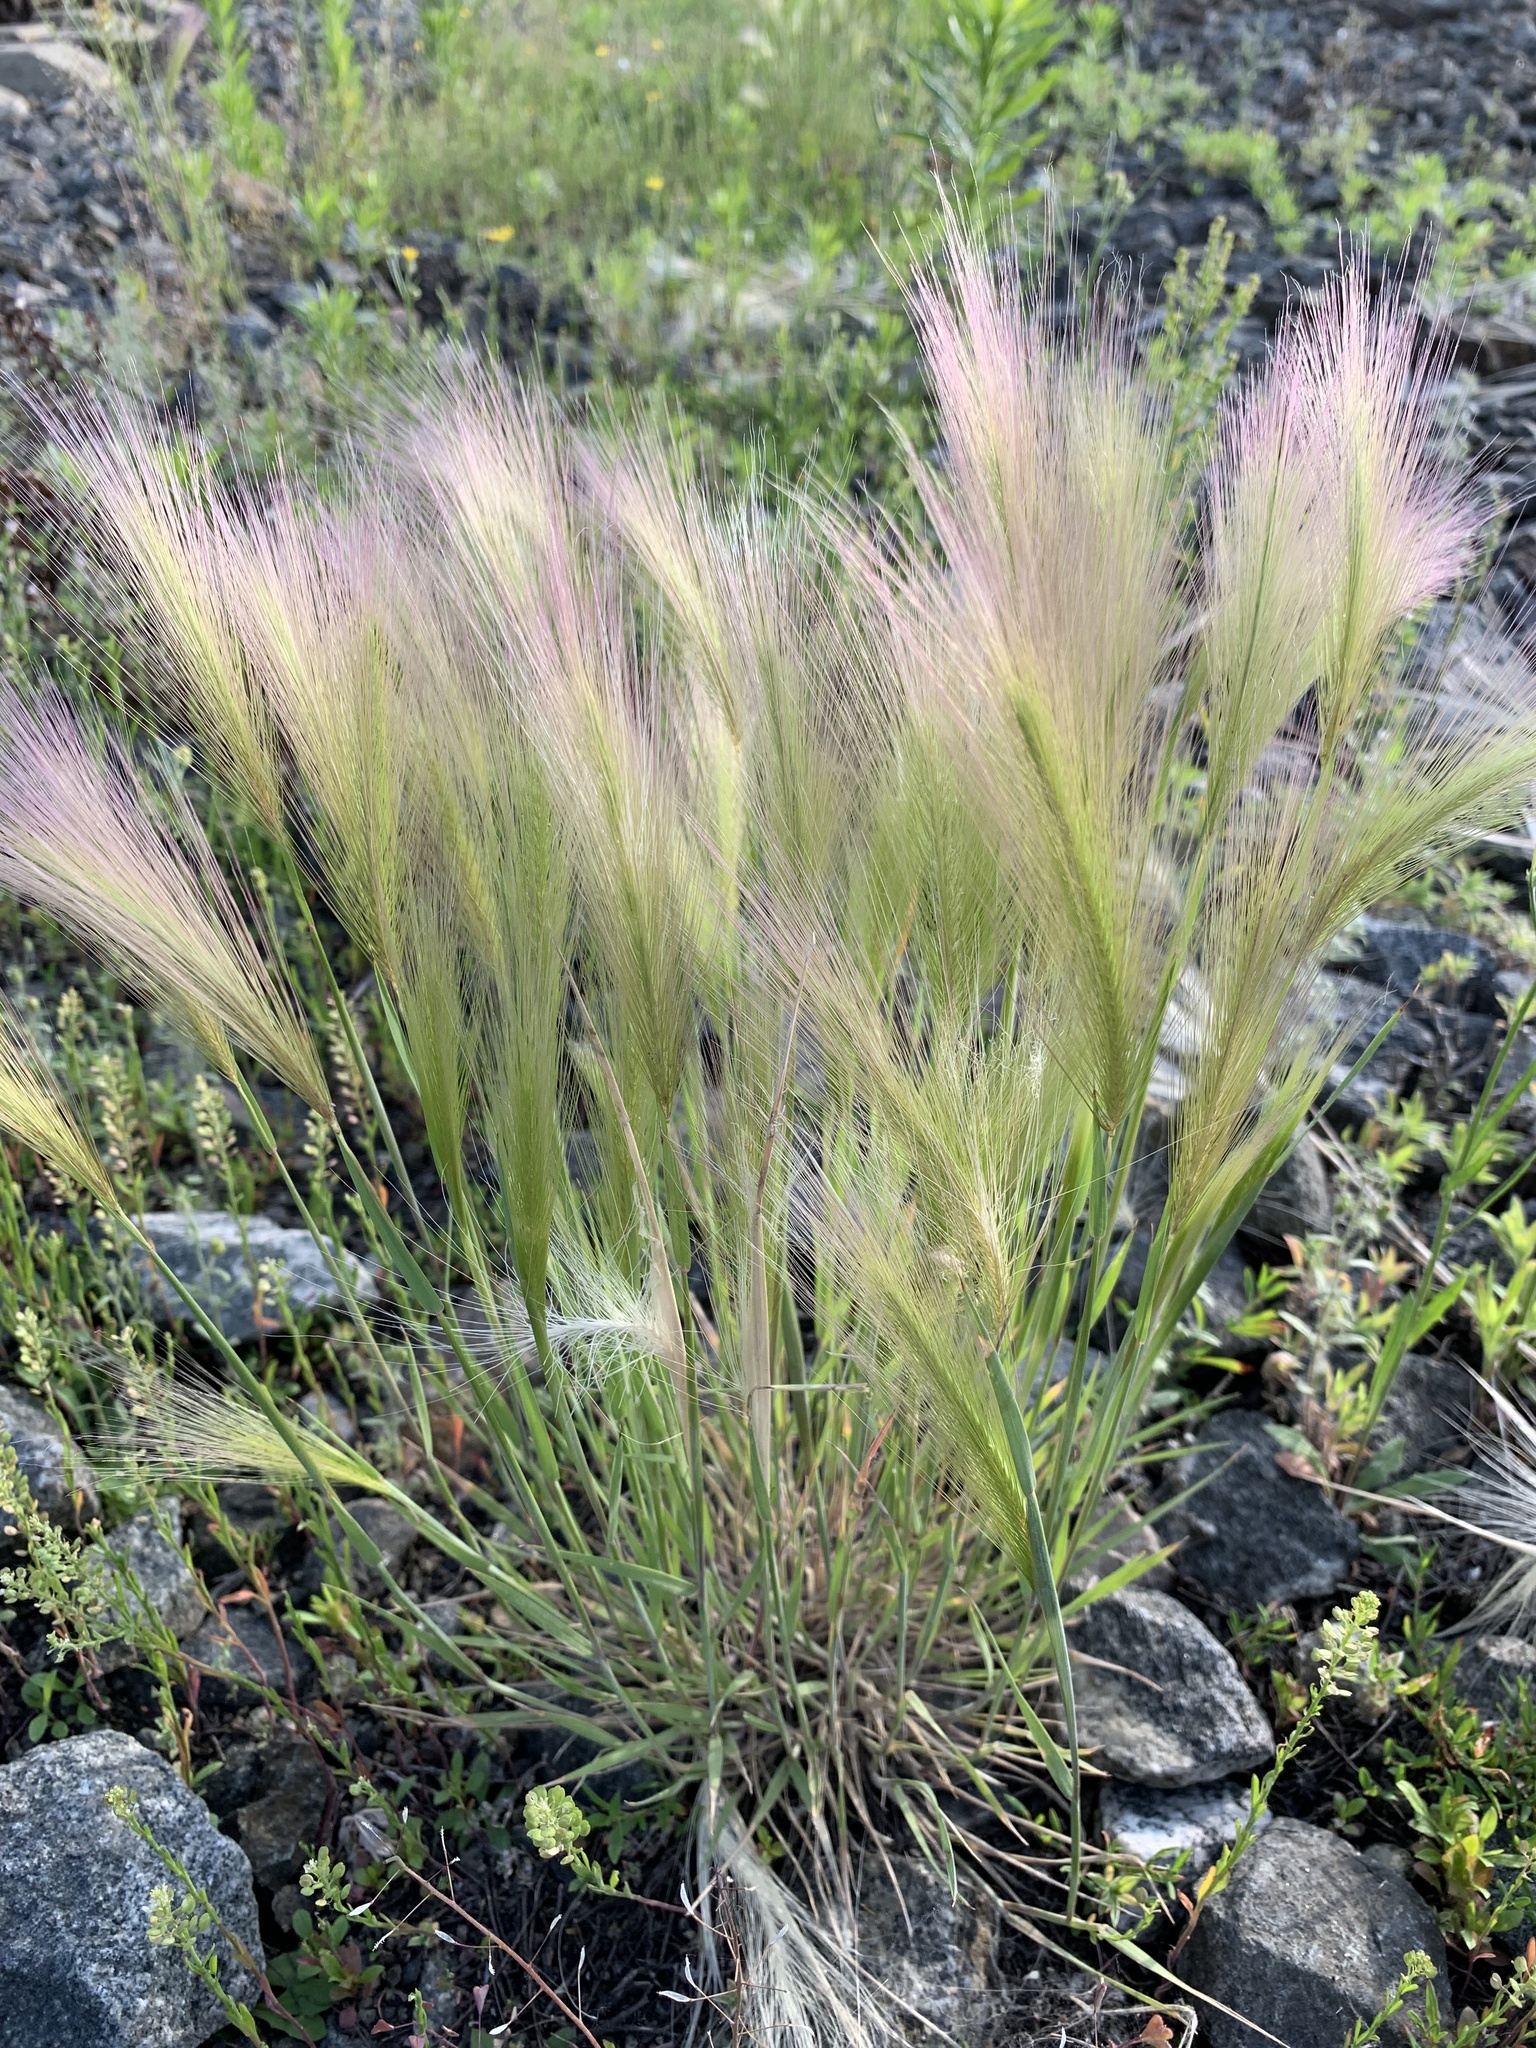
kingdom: Plantae
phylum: Tracheophyta
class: Liliopsida
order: Poales
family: Poaceae
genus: Hordeum
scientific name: Hordeum jubatum
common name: Foxtail barley
